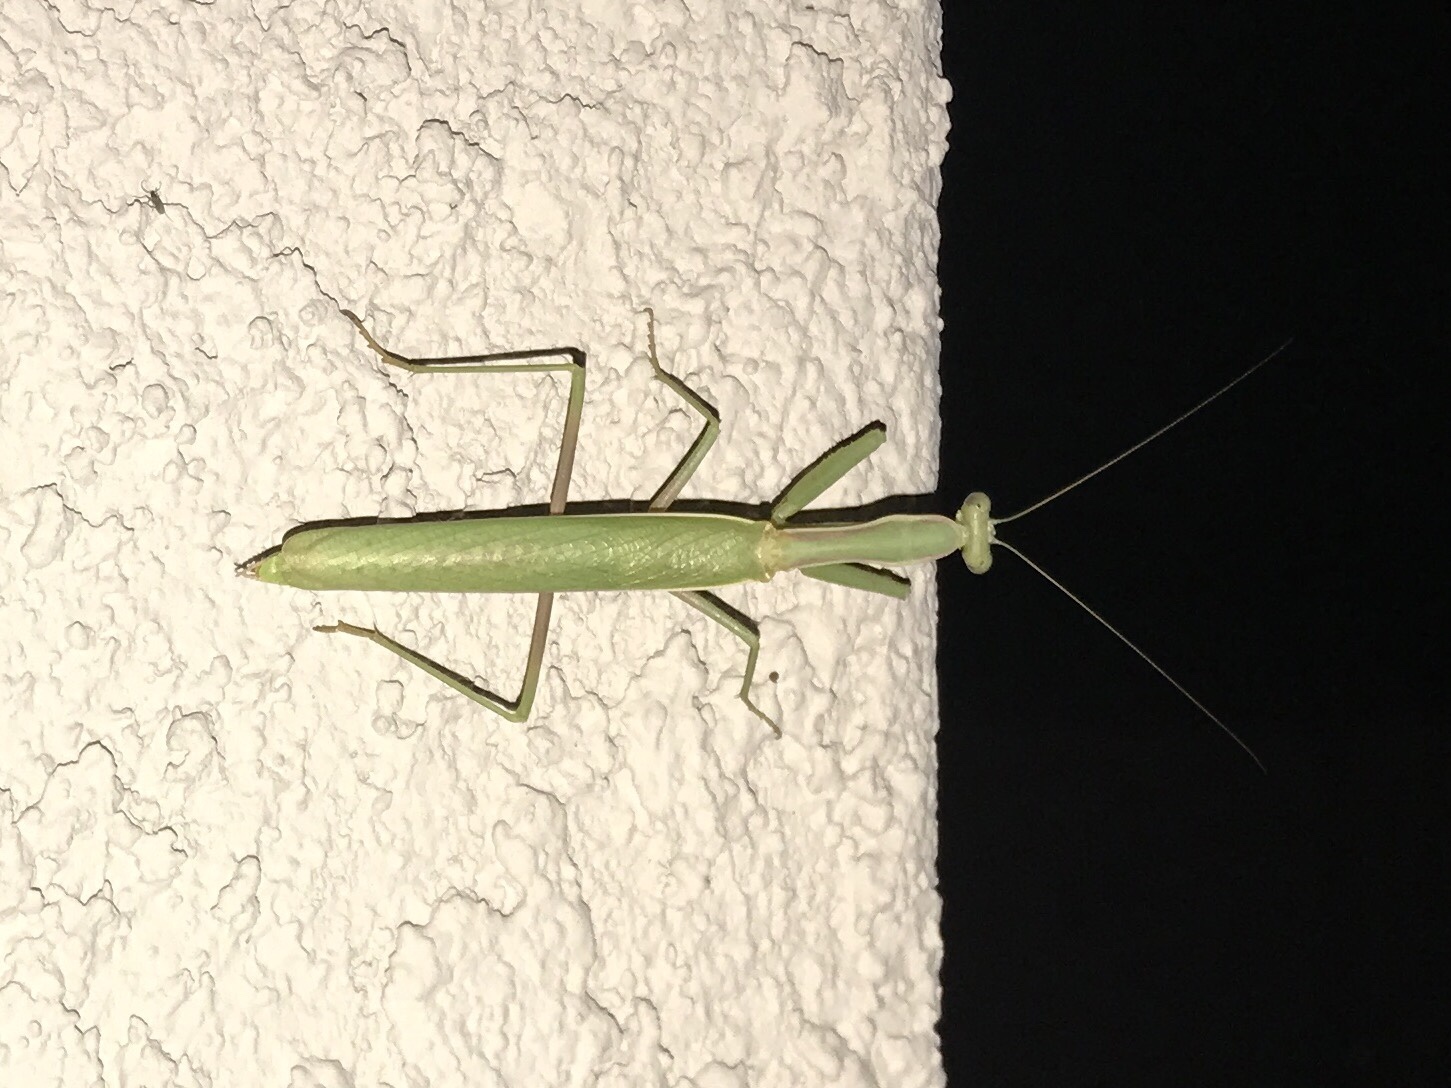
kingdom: Animalia
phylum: Arthropoda
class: Insecta
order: Mantodea
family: Eremiaphilidae
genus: Iris
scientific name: Iris oratoria
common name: Mediterranean mantis
